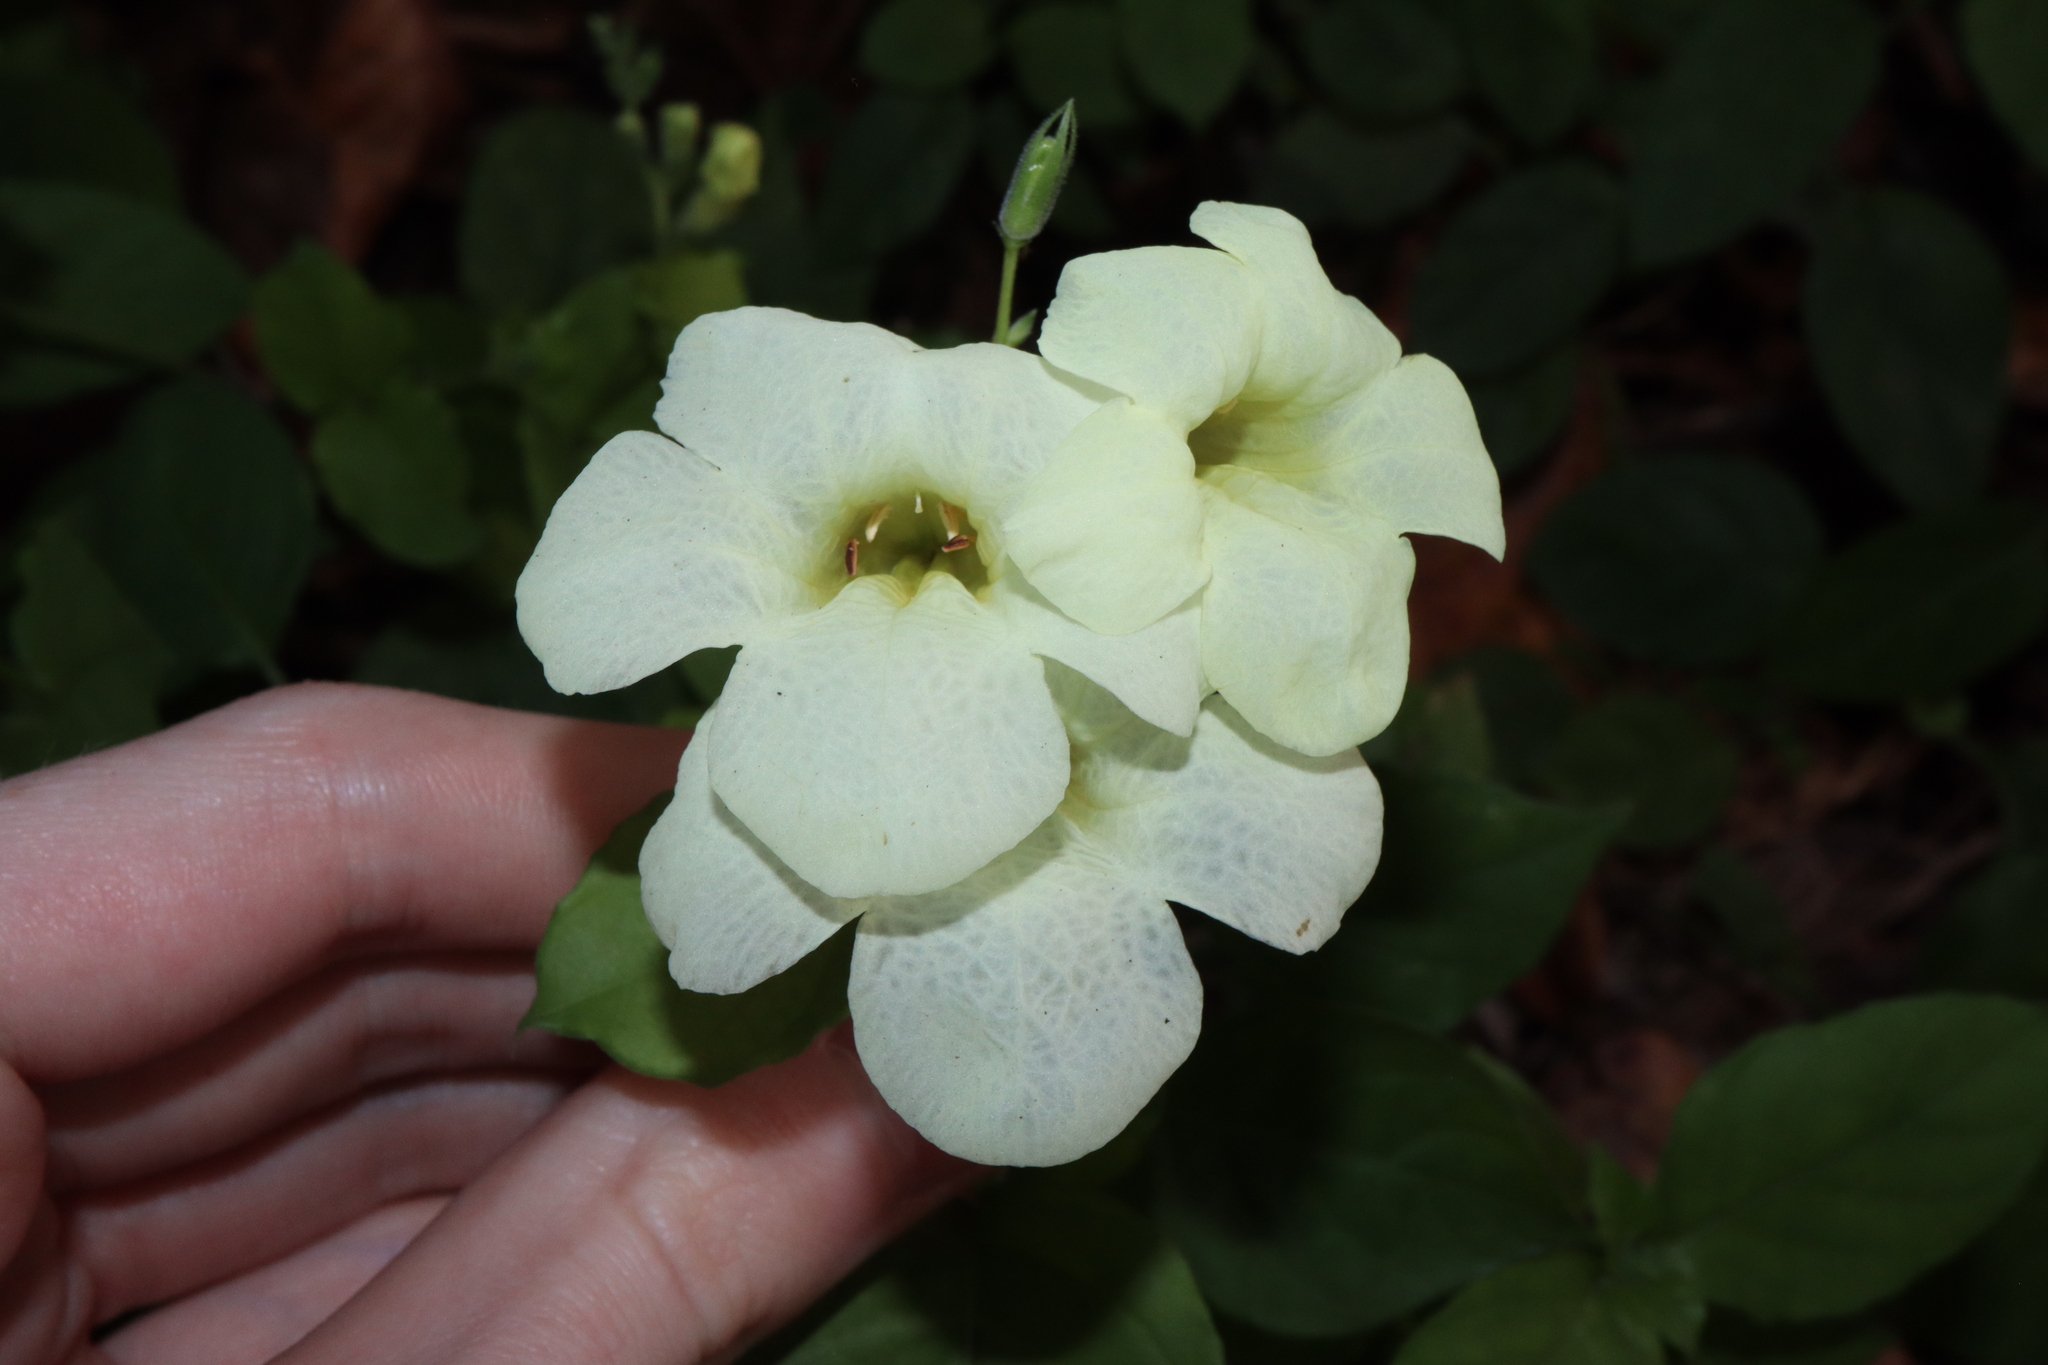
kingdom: Plantae
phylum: Tracheophyta
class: Magnoliopsida
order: Lamiales
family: Acanthaceae
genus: Asystasia
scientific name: Asystasia gangetica
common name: Chinese violet
